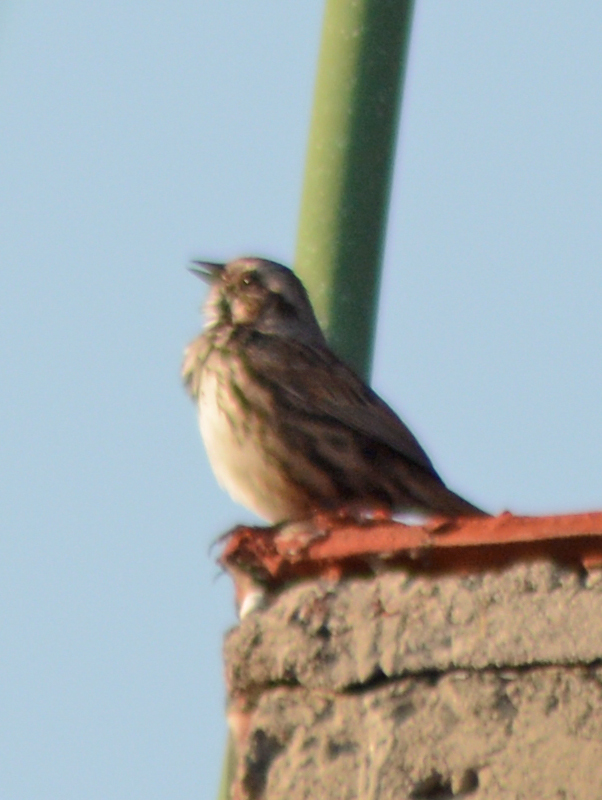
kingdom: Animalia
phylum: Chordata
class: Aves
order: Passeriformes
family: Passerellidae
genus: Melospiza
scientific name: Melospiza melodia
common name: Song sparrow
